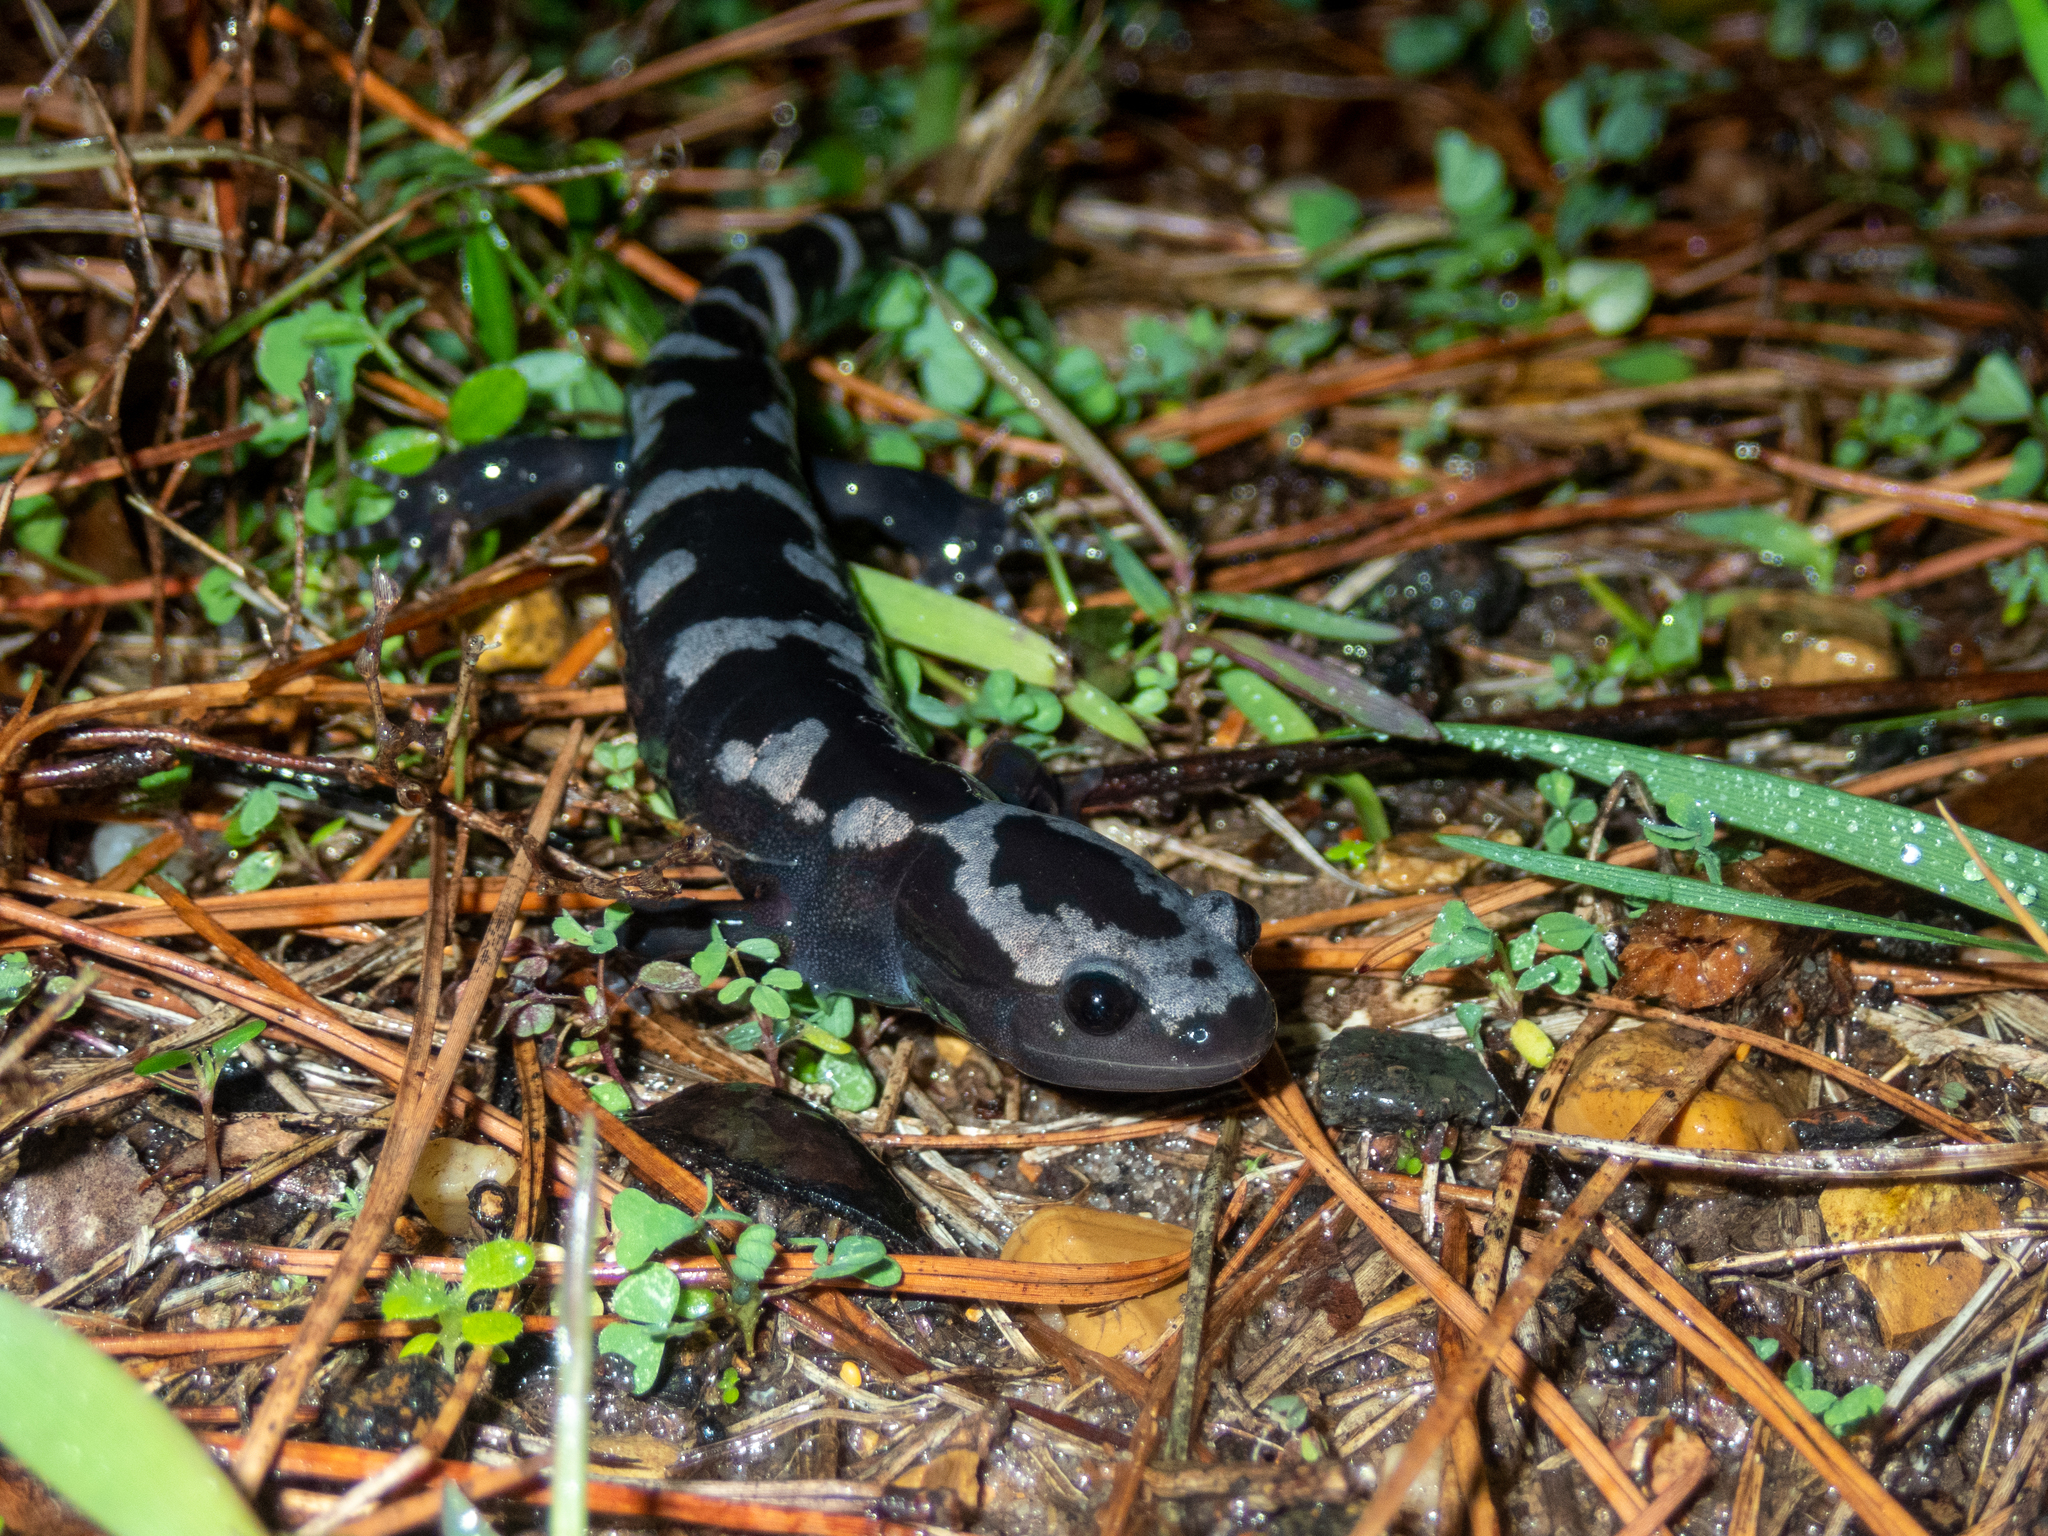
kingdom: Animalia
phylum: Chordata
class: Amphibia
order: Caudata
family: Ambystomatidae
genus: Ambystoma
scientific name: Ambystoma opacum
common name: Marbled salamander
